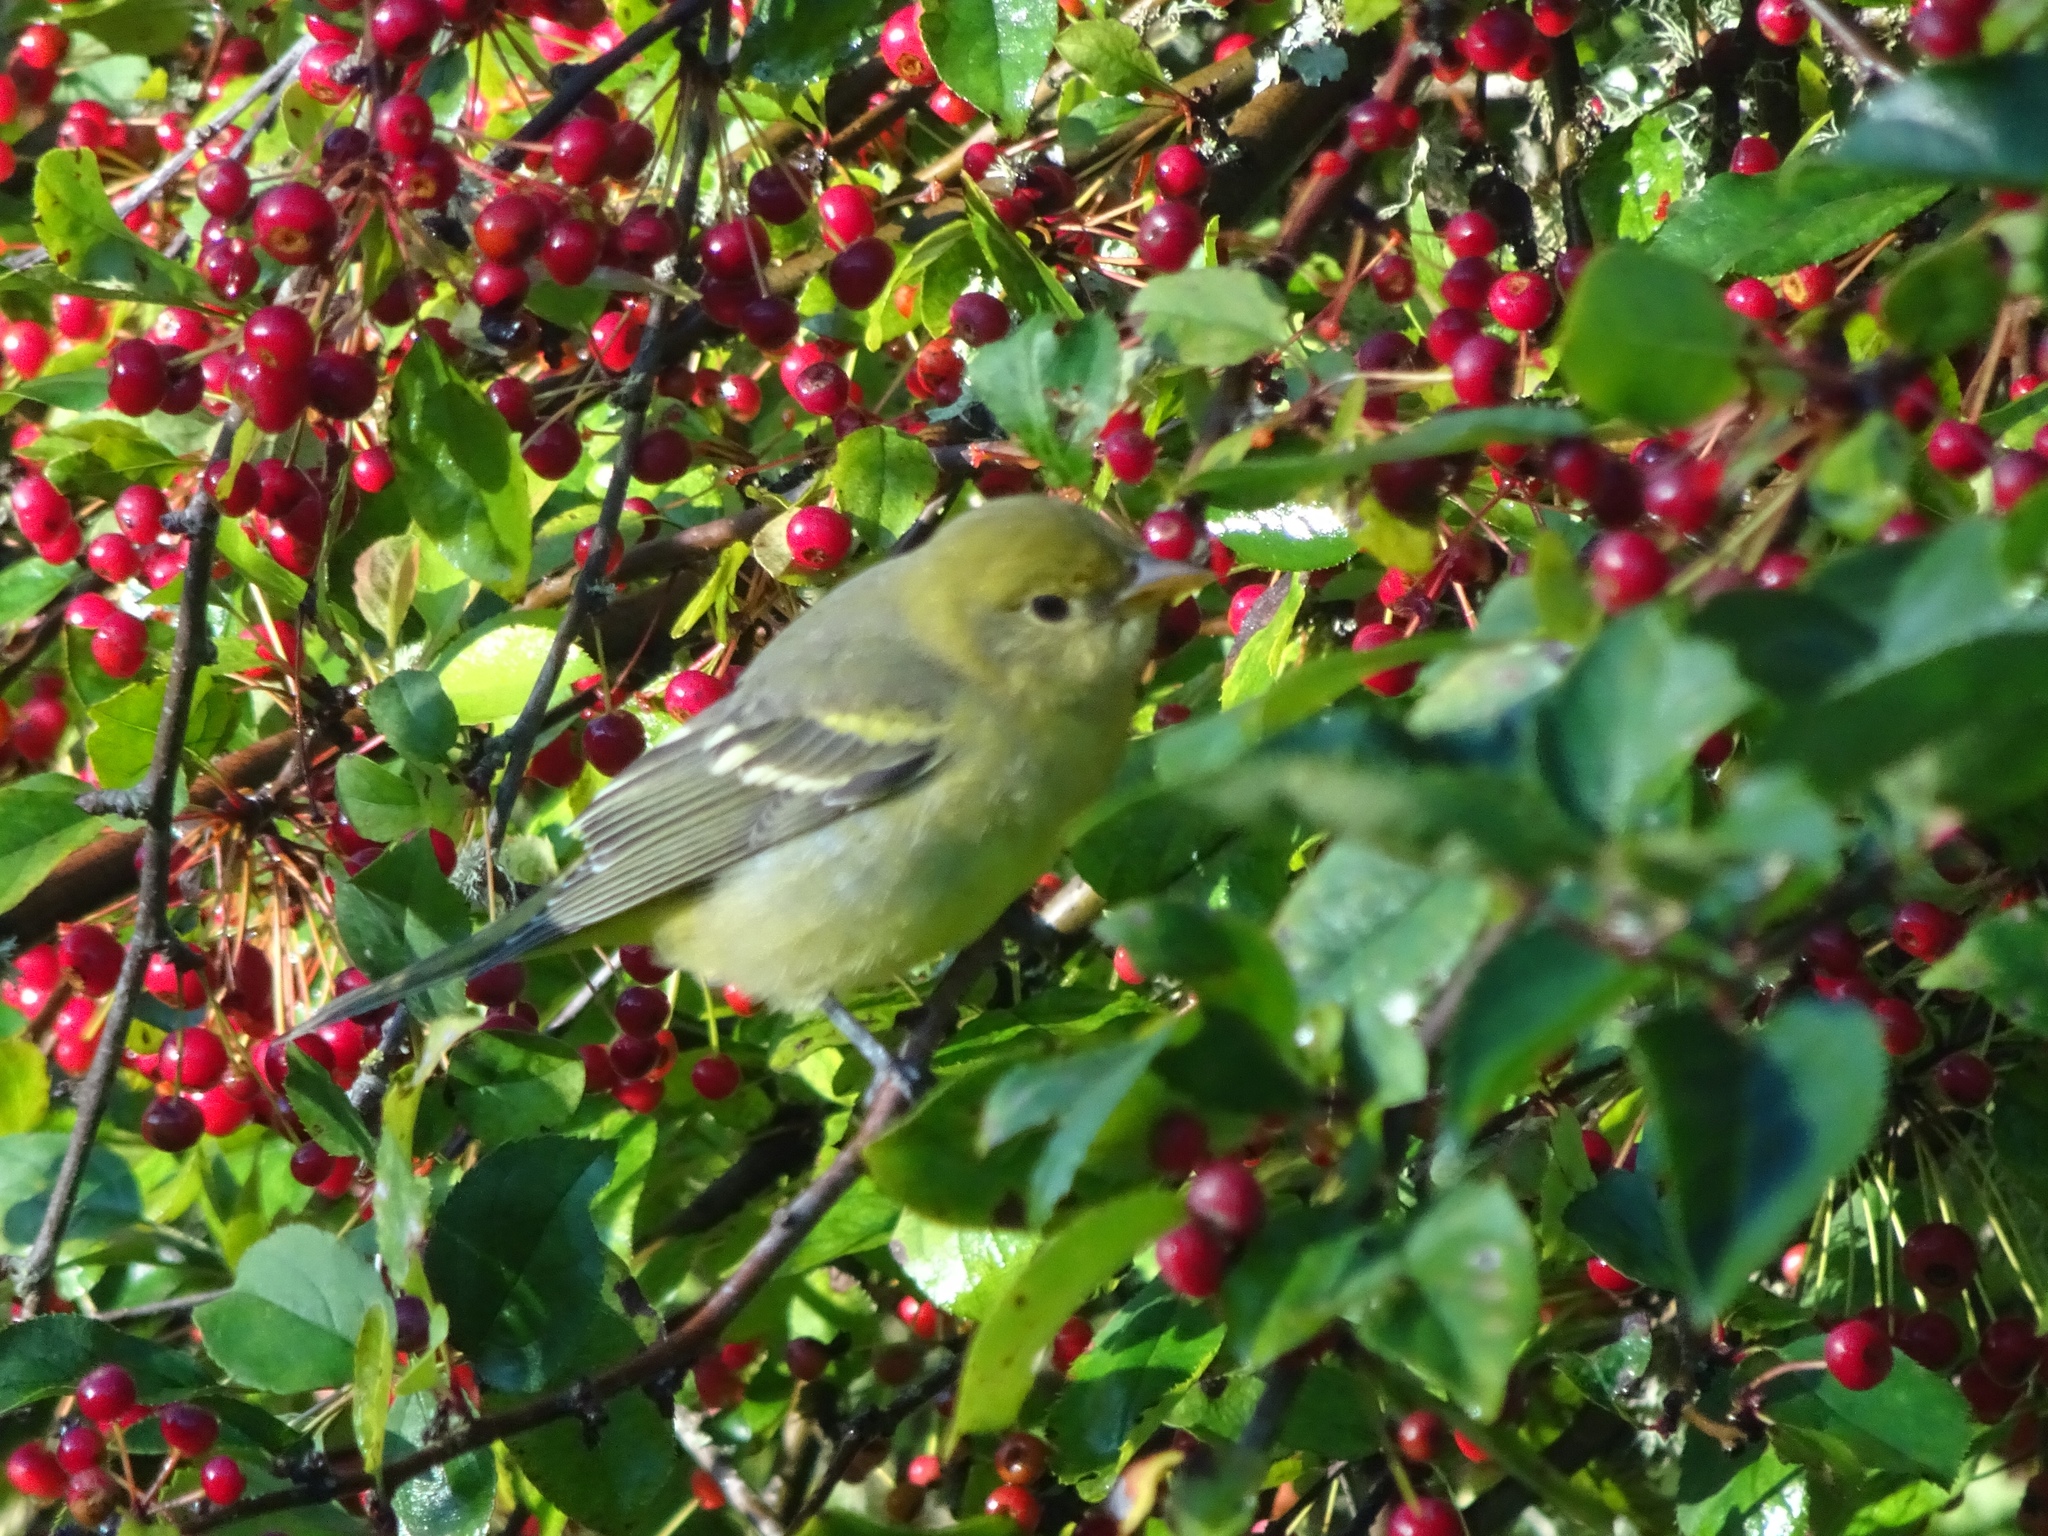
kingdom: Animalia
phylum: Chordata
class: Aves
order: Passeriformes
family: Cardinalidae
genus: Piranga
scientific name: Piranga ludoviciana
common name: Western tanager
